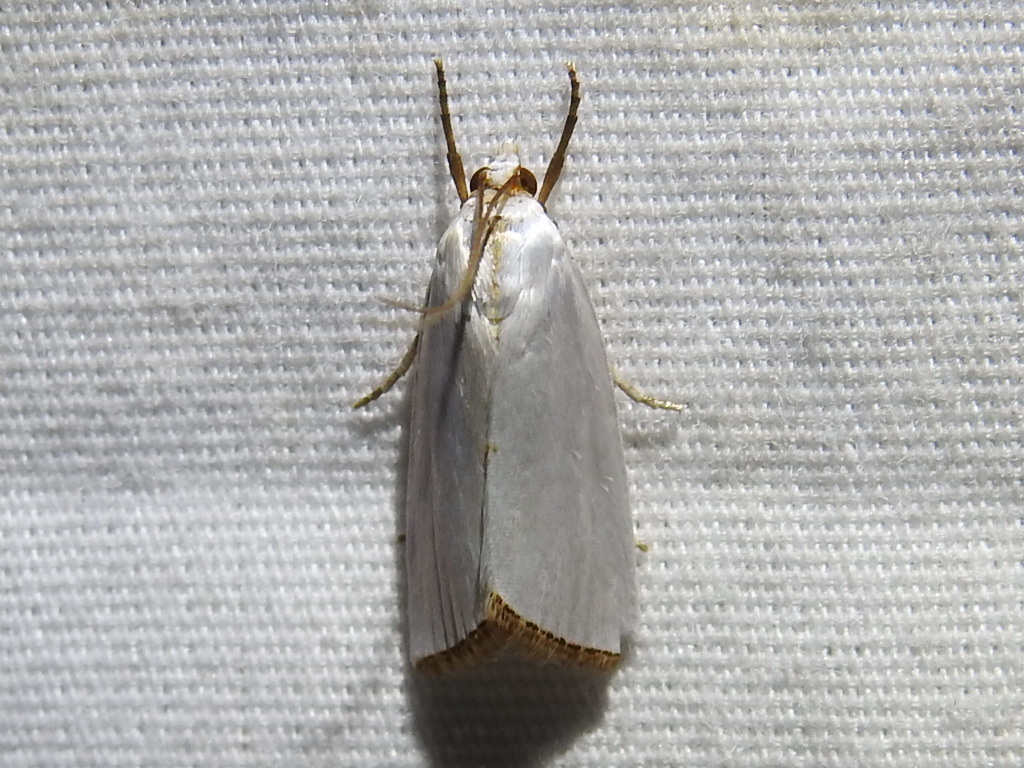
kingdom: Animalia
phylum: Arthropoda
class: Insecta
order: Lepidoptera
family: Crambidae
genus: Argyria
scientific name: Argyria nivalis
